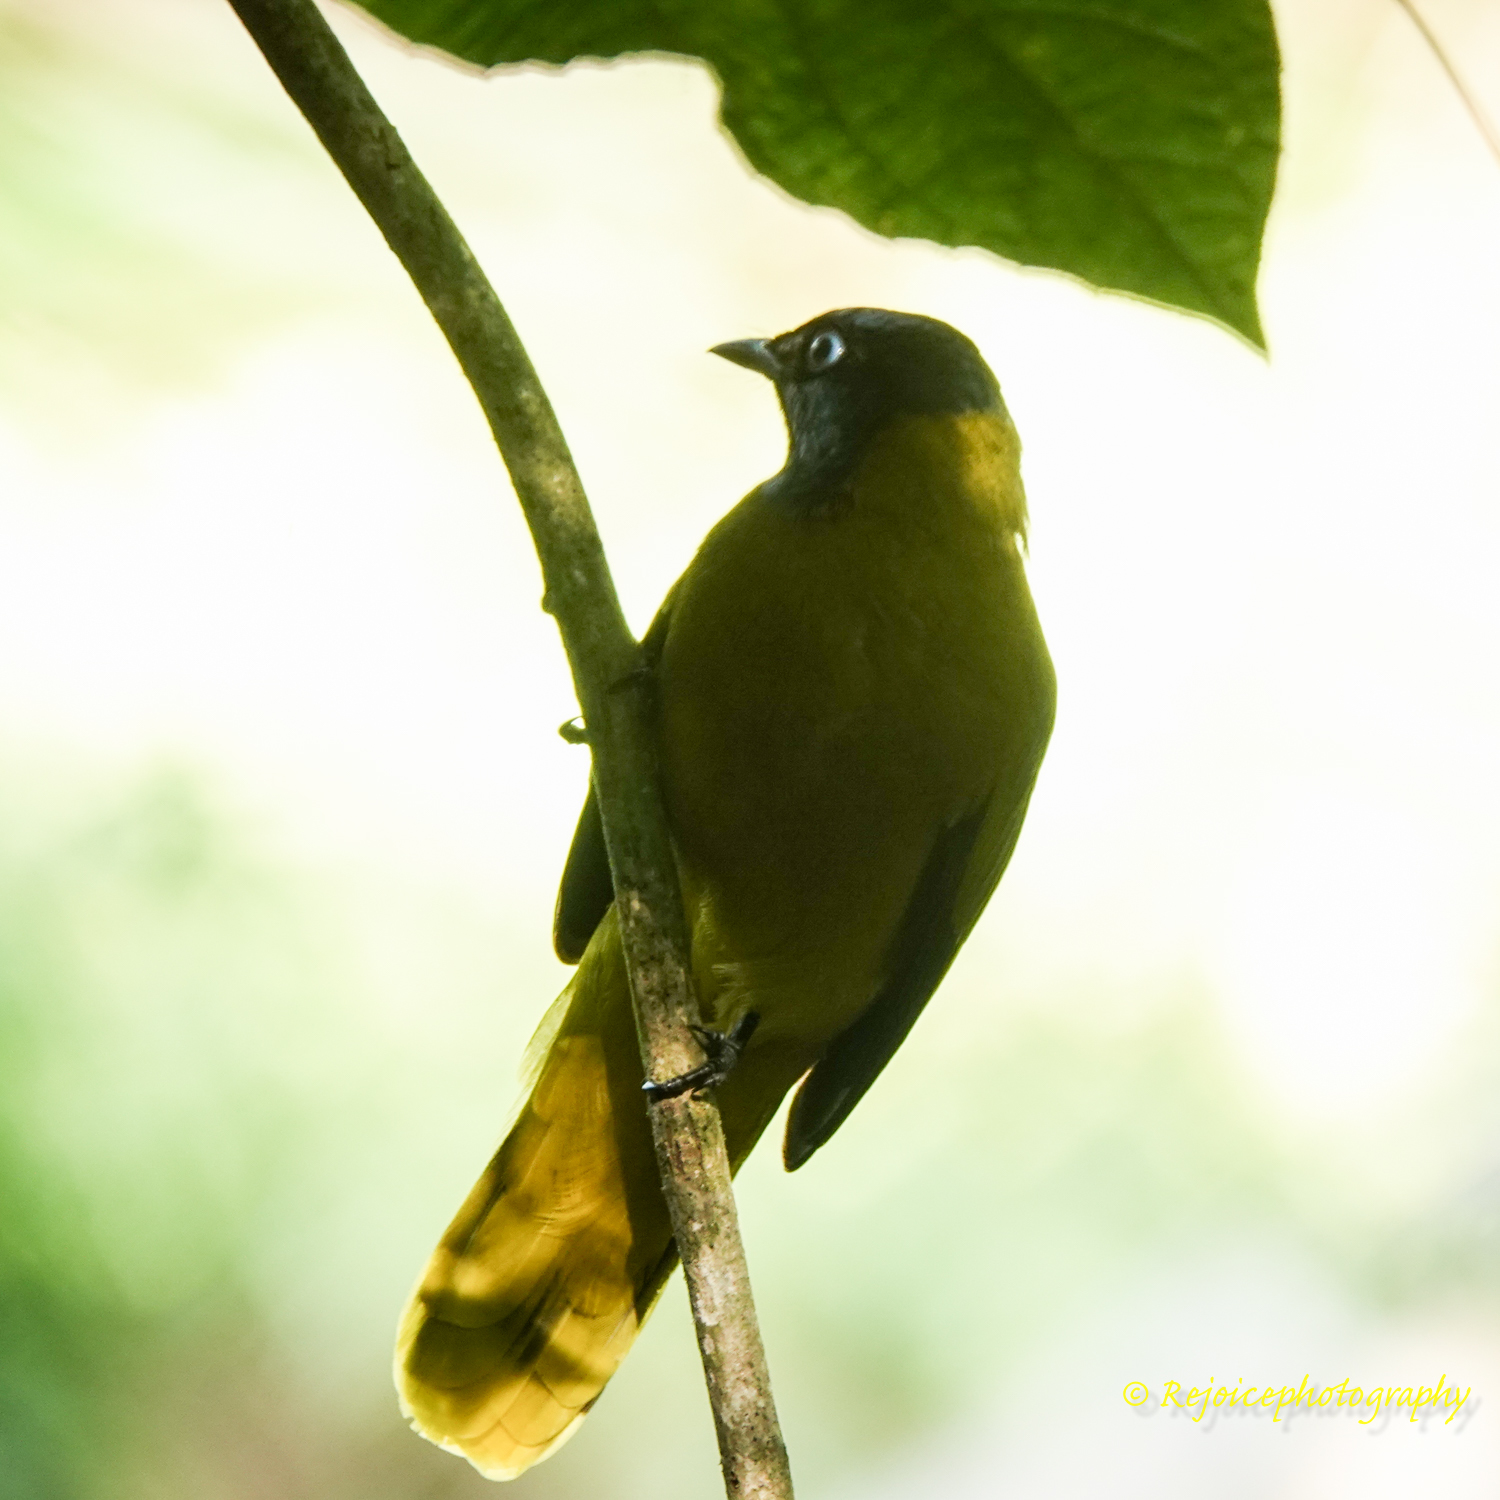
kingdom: Animalia
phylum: Chordata
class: Aves
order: Passeriformes
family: Pycnonotidae
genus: Microtarsus
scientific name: Microtarsus
